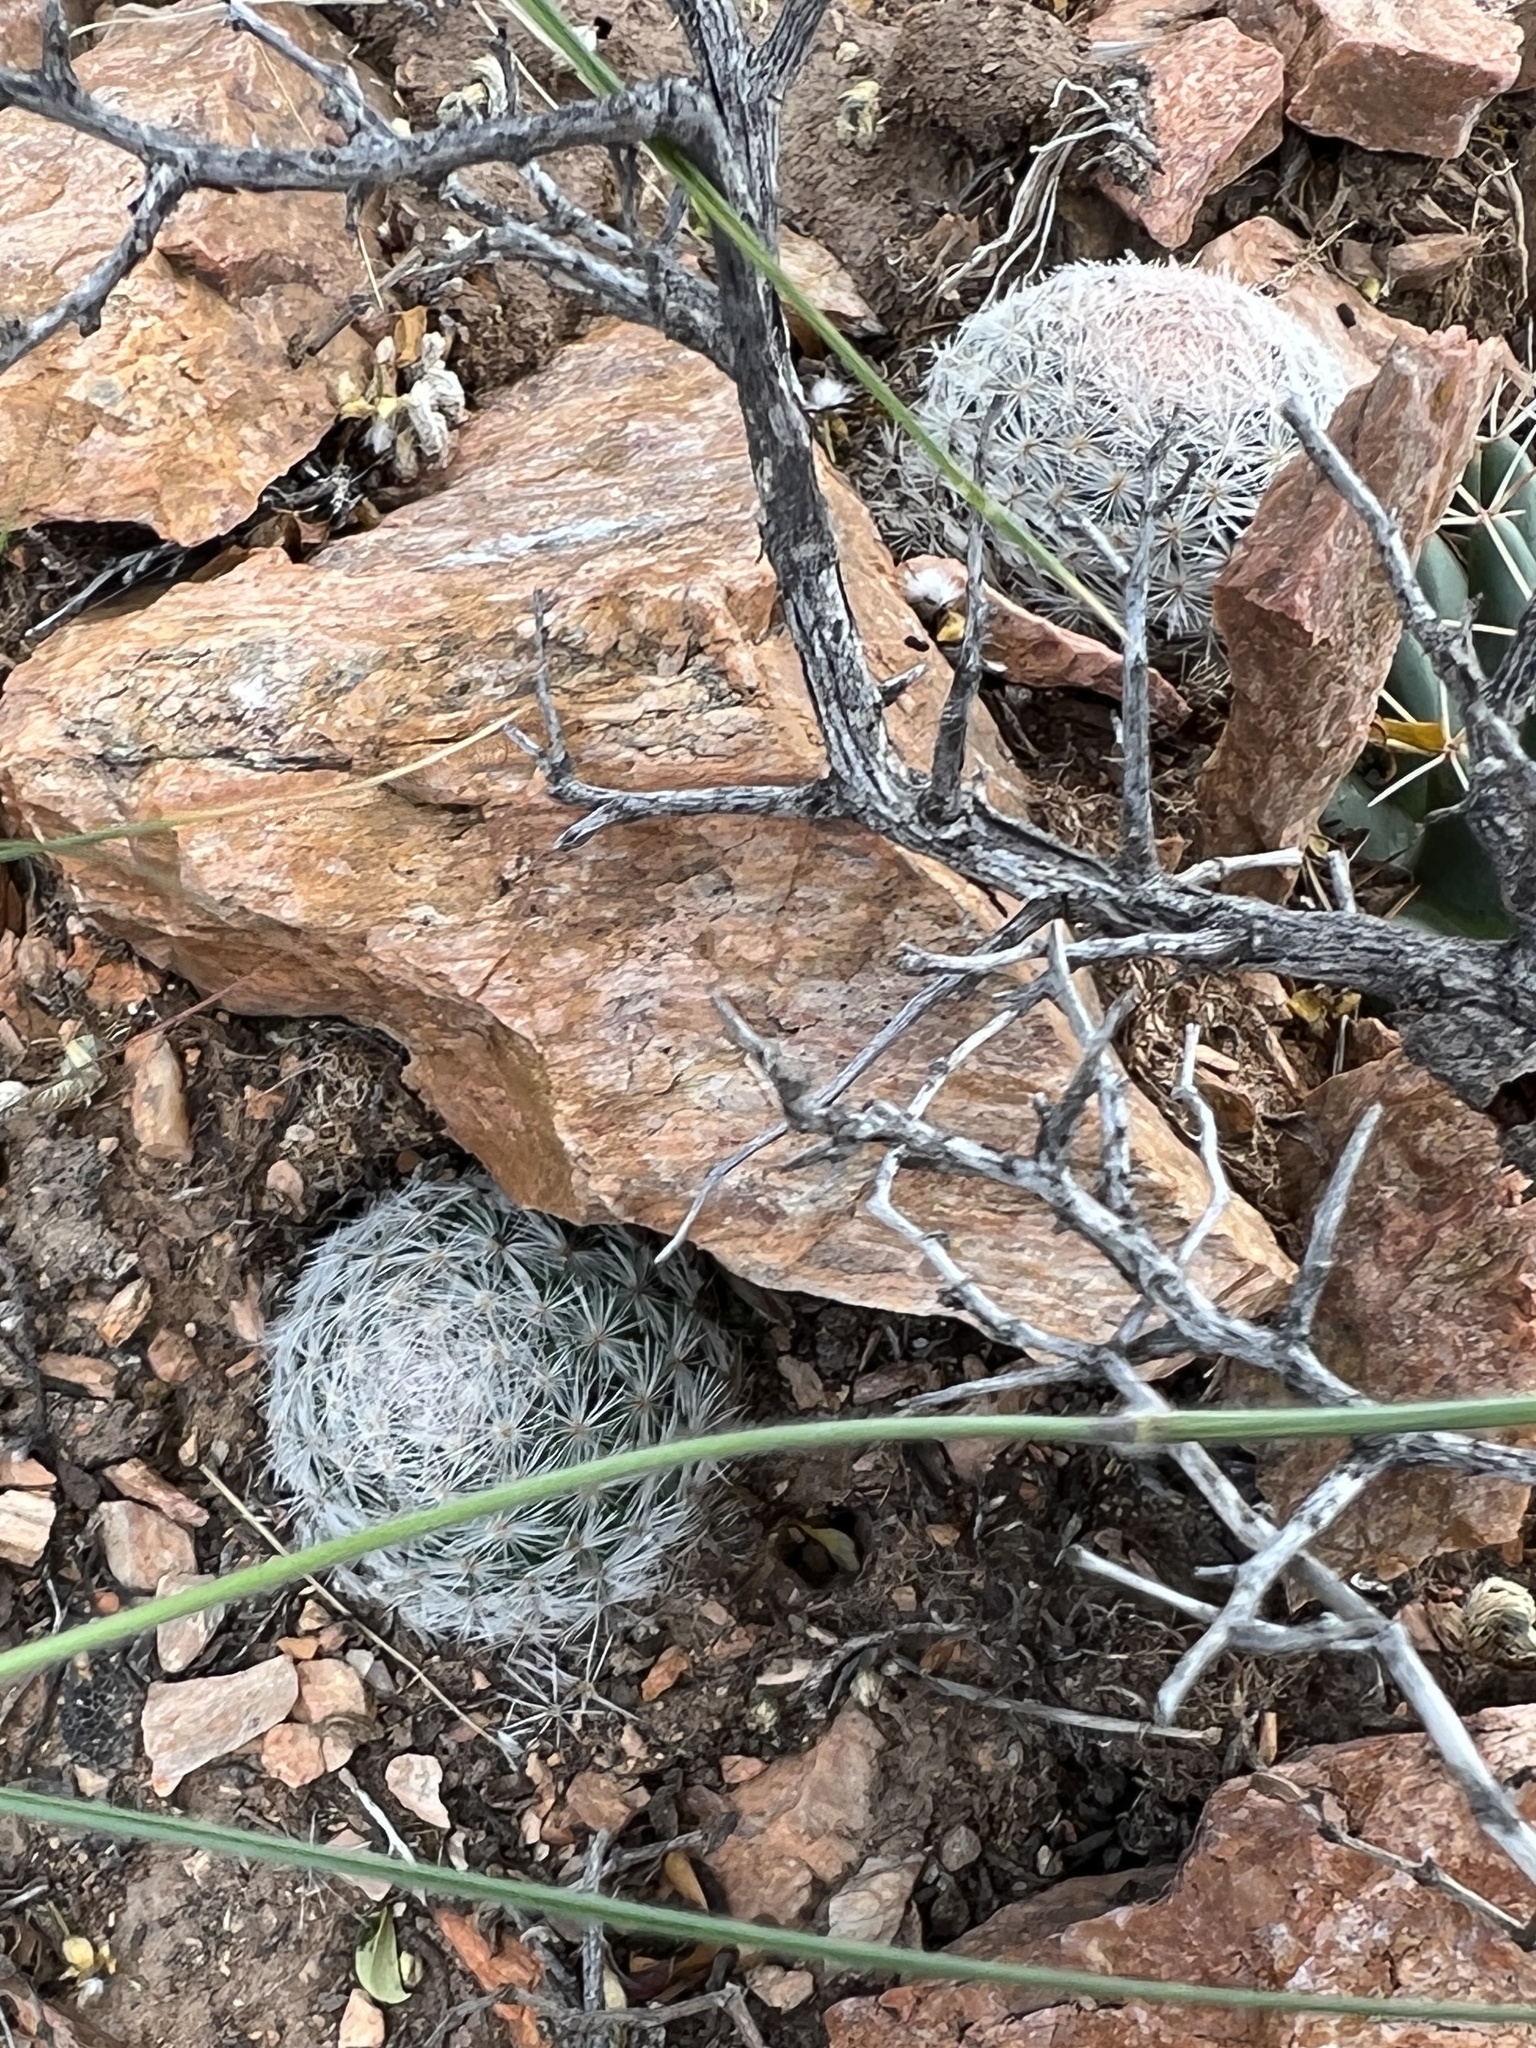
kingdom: Plantae
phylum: Tracheophyta
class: Magnoliopsida
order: Caryophyllales
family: Cactaceae
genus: Mammillaria
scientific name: Mammillaria lasiacantha
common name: Lace-spine nipple cactus
